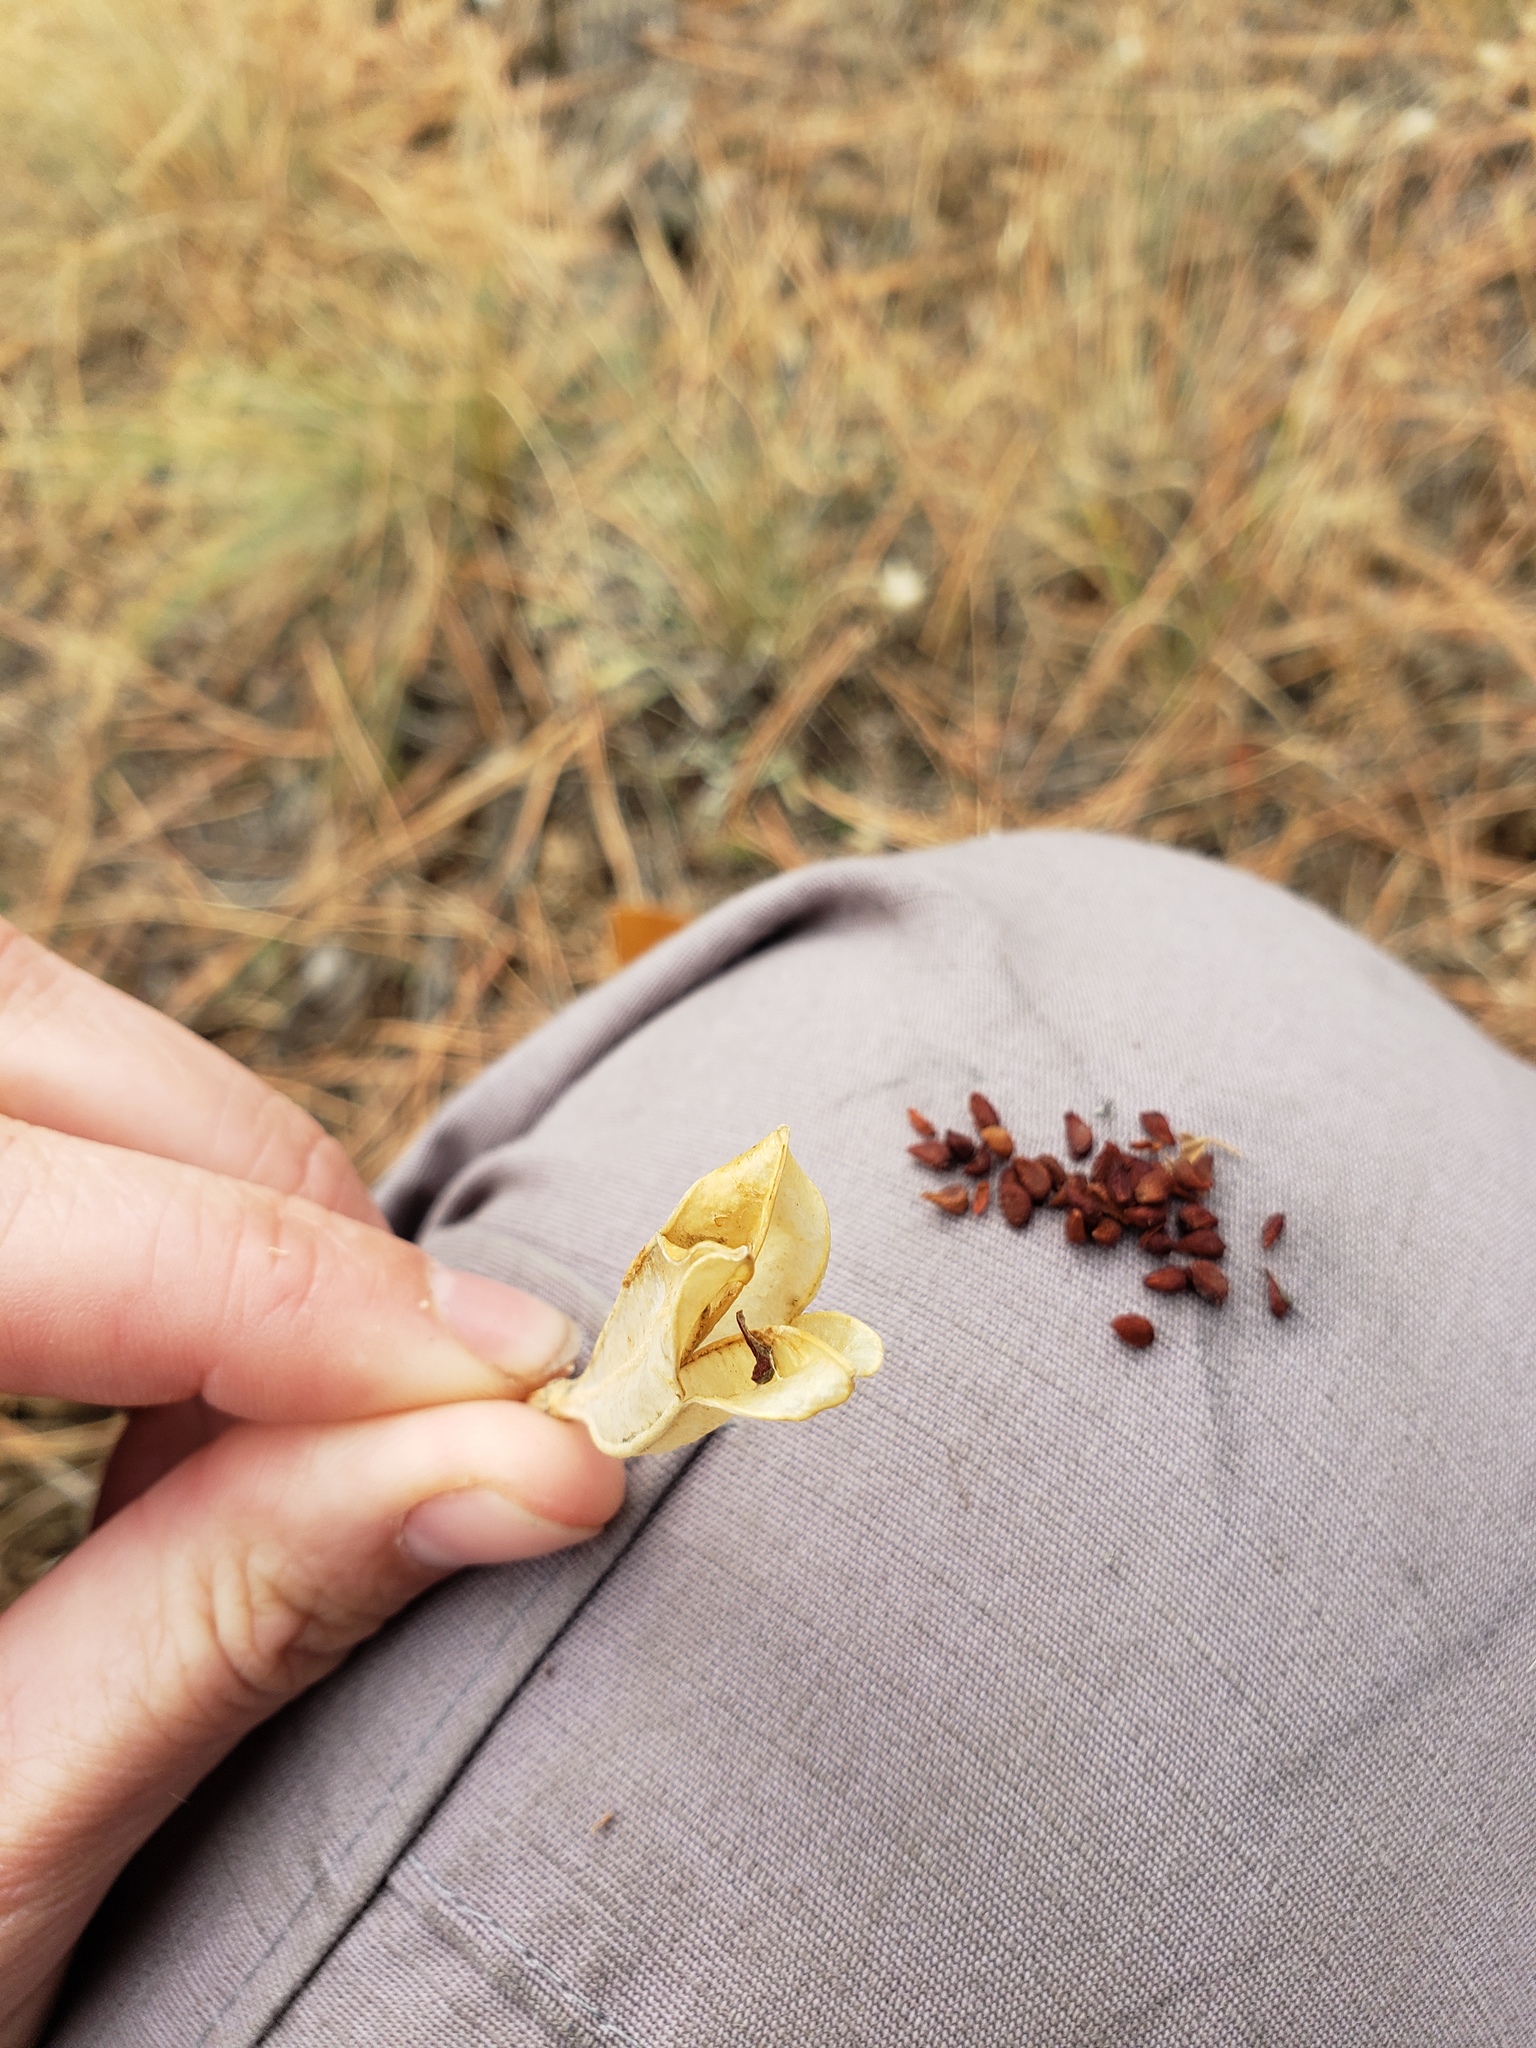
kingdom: Plantae
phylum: Tracheophyta
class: Liliopsida
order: Liliales
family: Liliaceae
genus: Erythronium
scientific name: Erythronium grandiflorum
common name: Avalanche-lily
